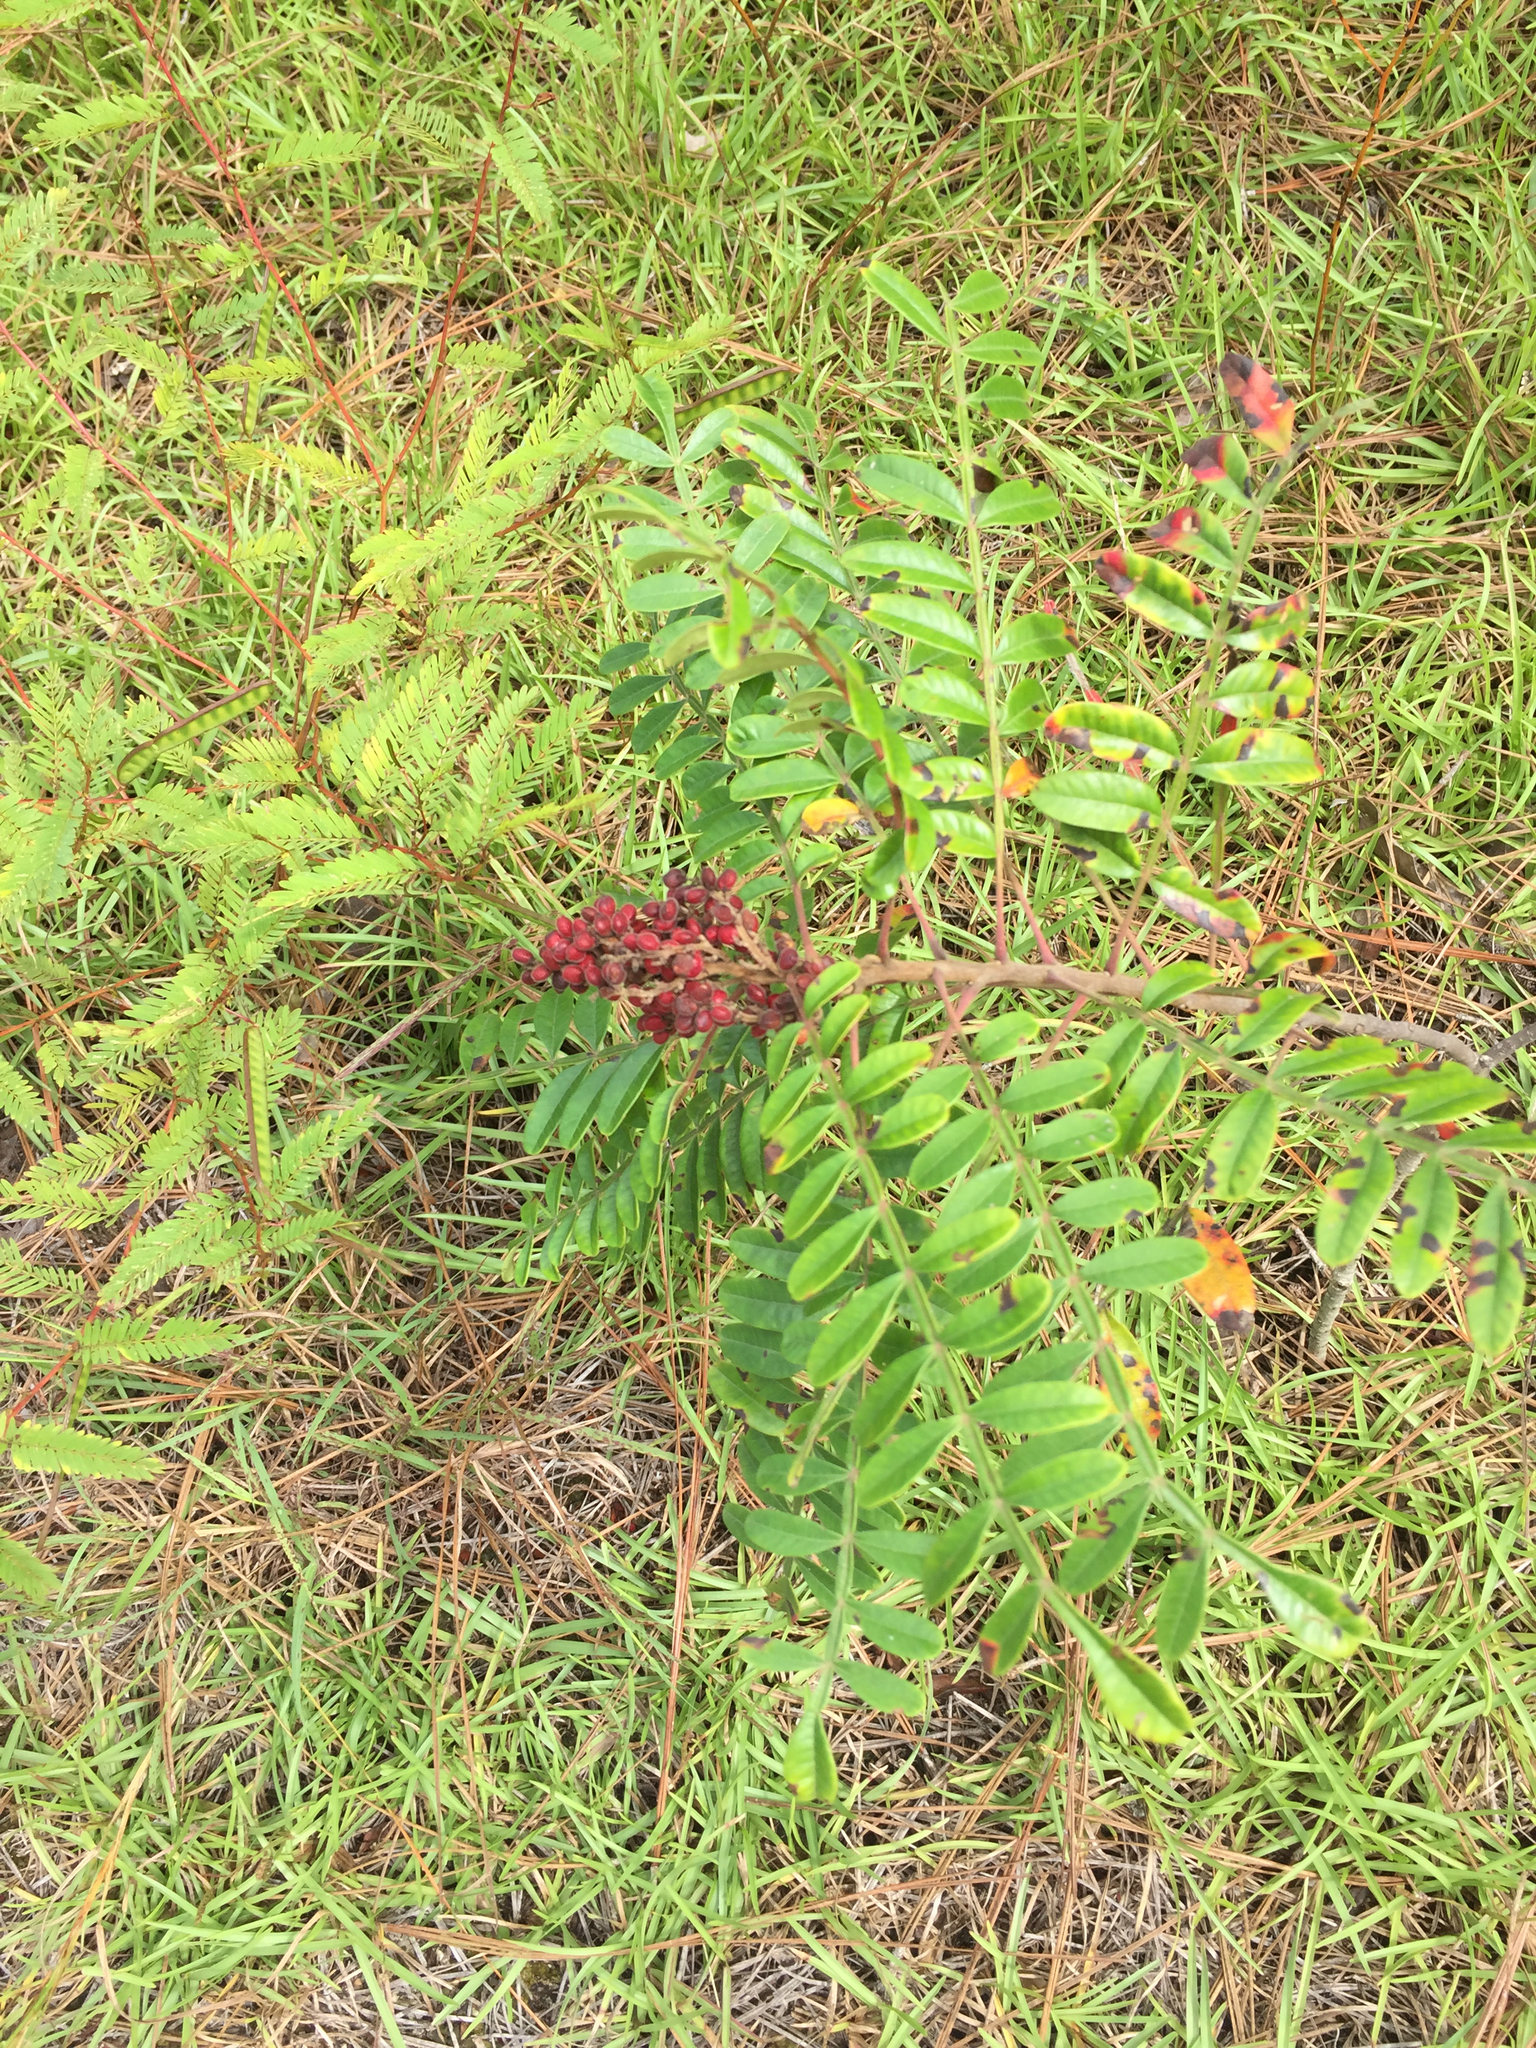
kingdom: Plantae
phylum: Tracheophyta
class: Magnoliopsida
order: Sapindales
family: Anacardiaceae
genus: Rhus
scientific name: Rhus copallina
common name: Shining sumac
